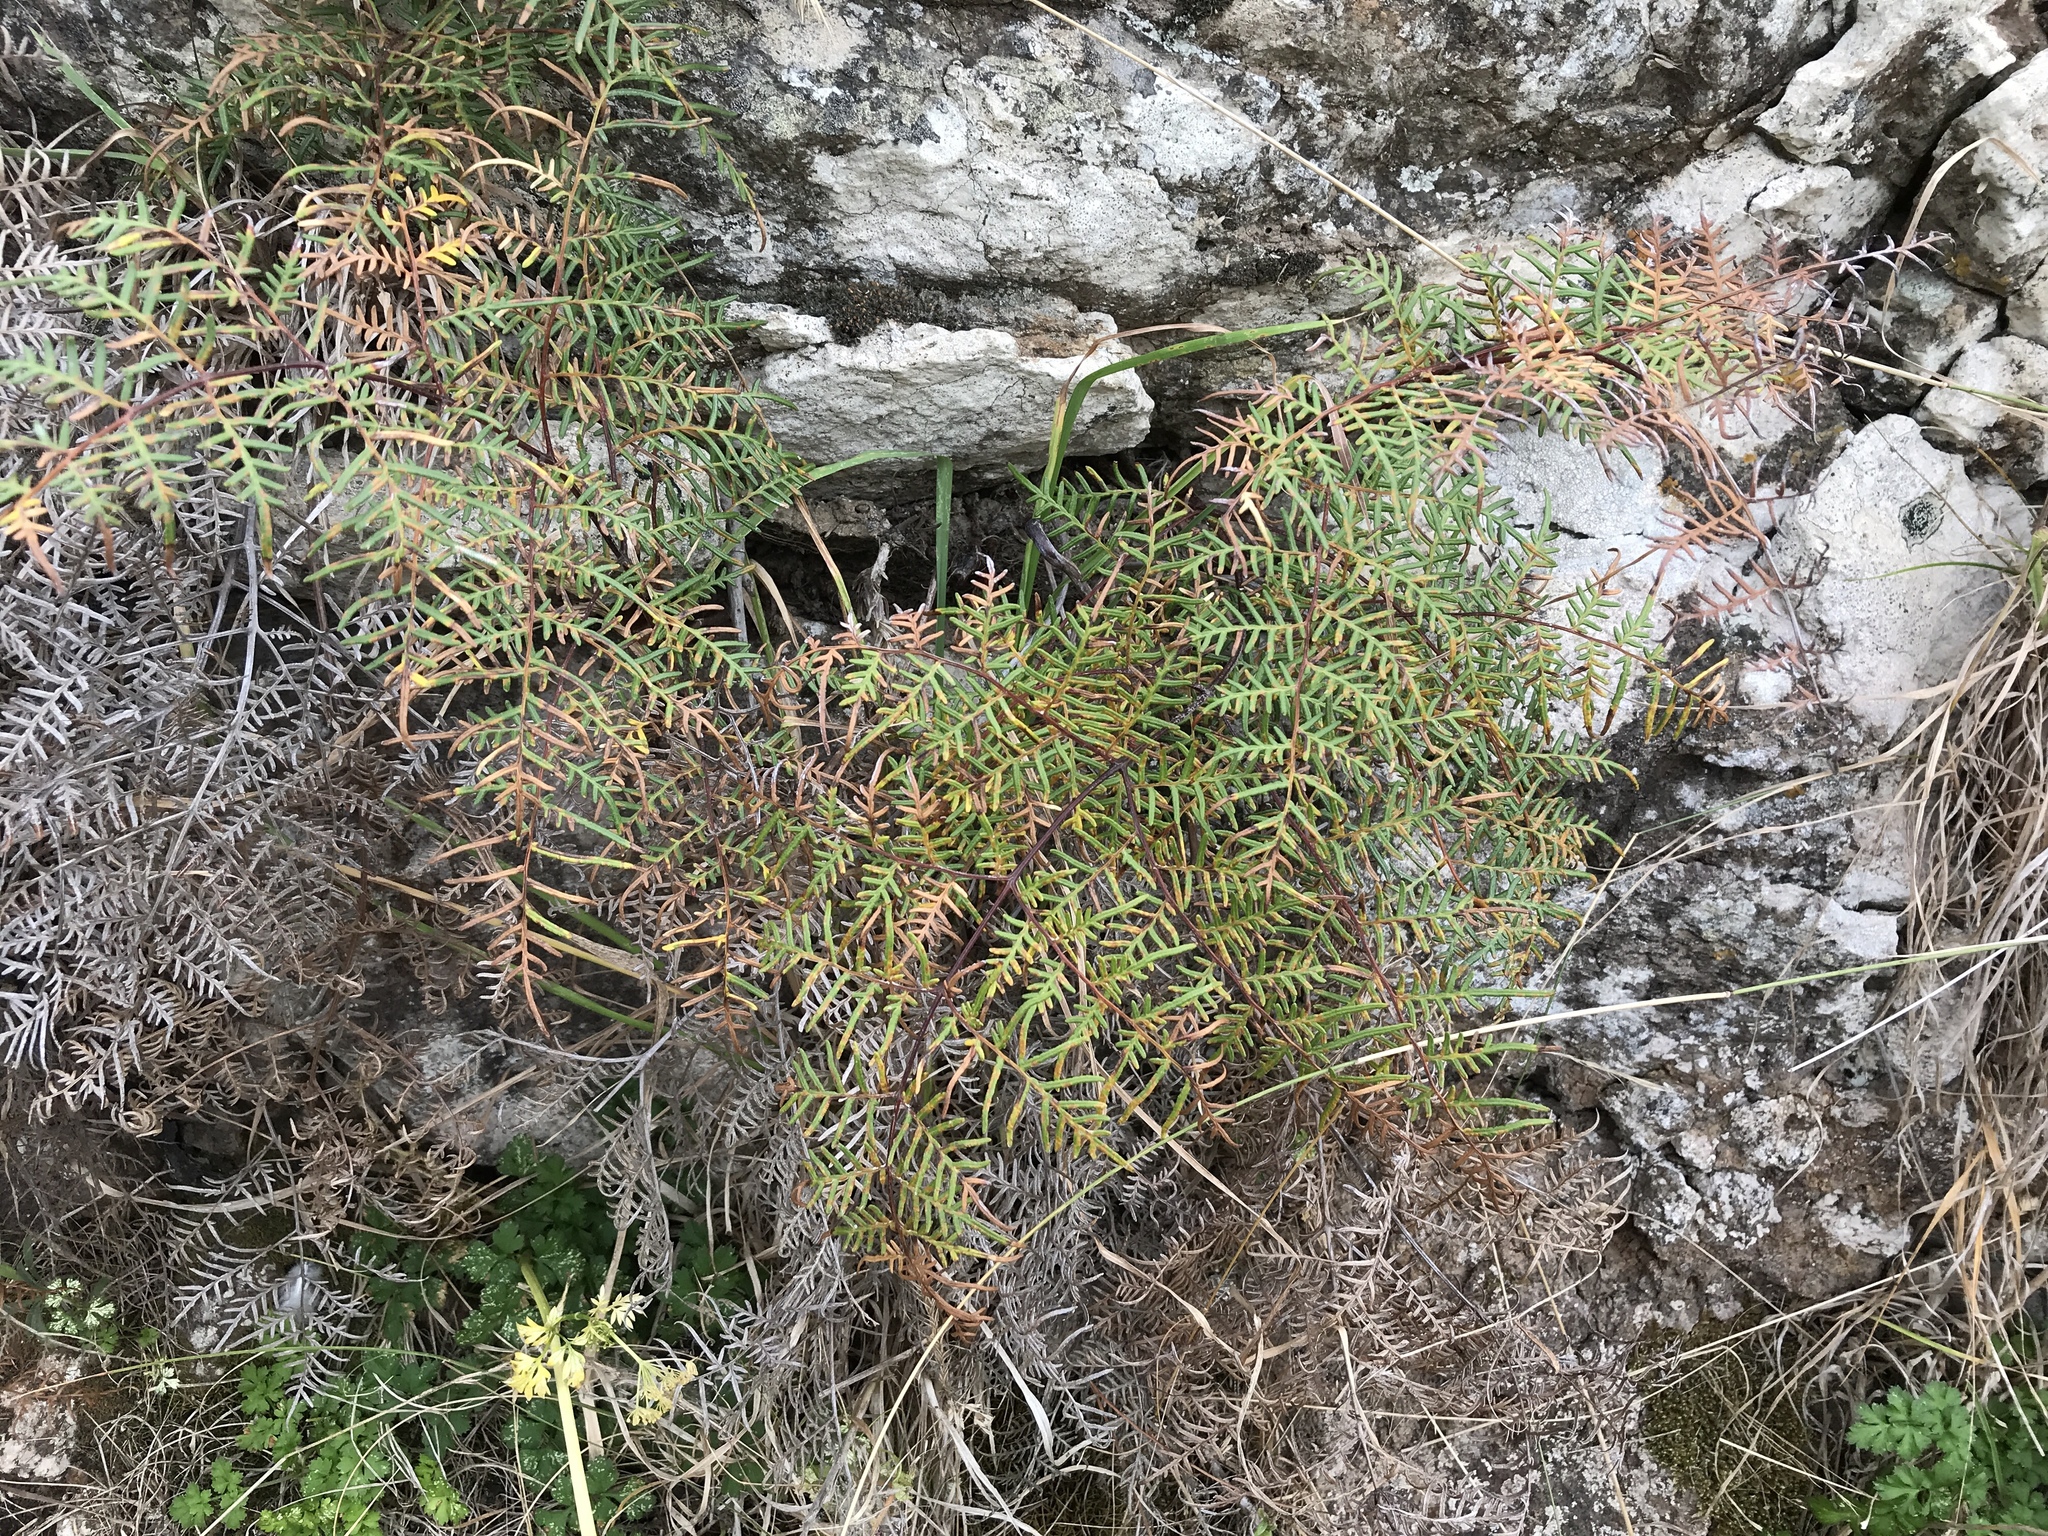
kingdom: Plantae
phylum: Tracheophyta
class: Polypodiopsida
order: Polypodiales
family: Dennstaedtiaceae
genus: Pteridium
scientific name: Pteridium esculentum
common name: Bracken fern
